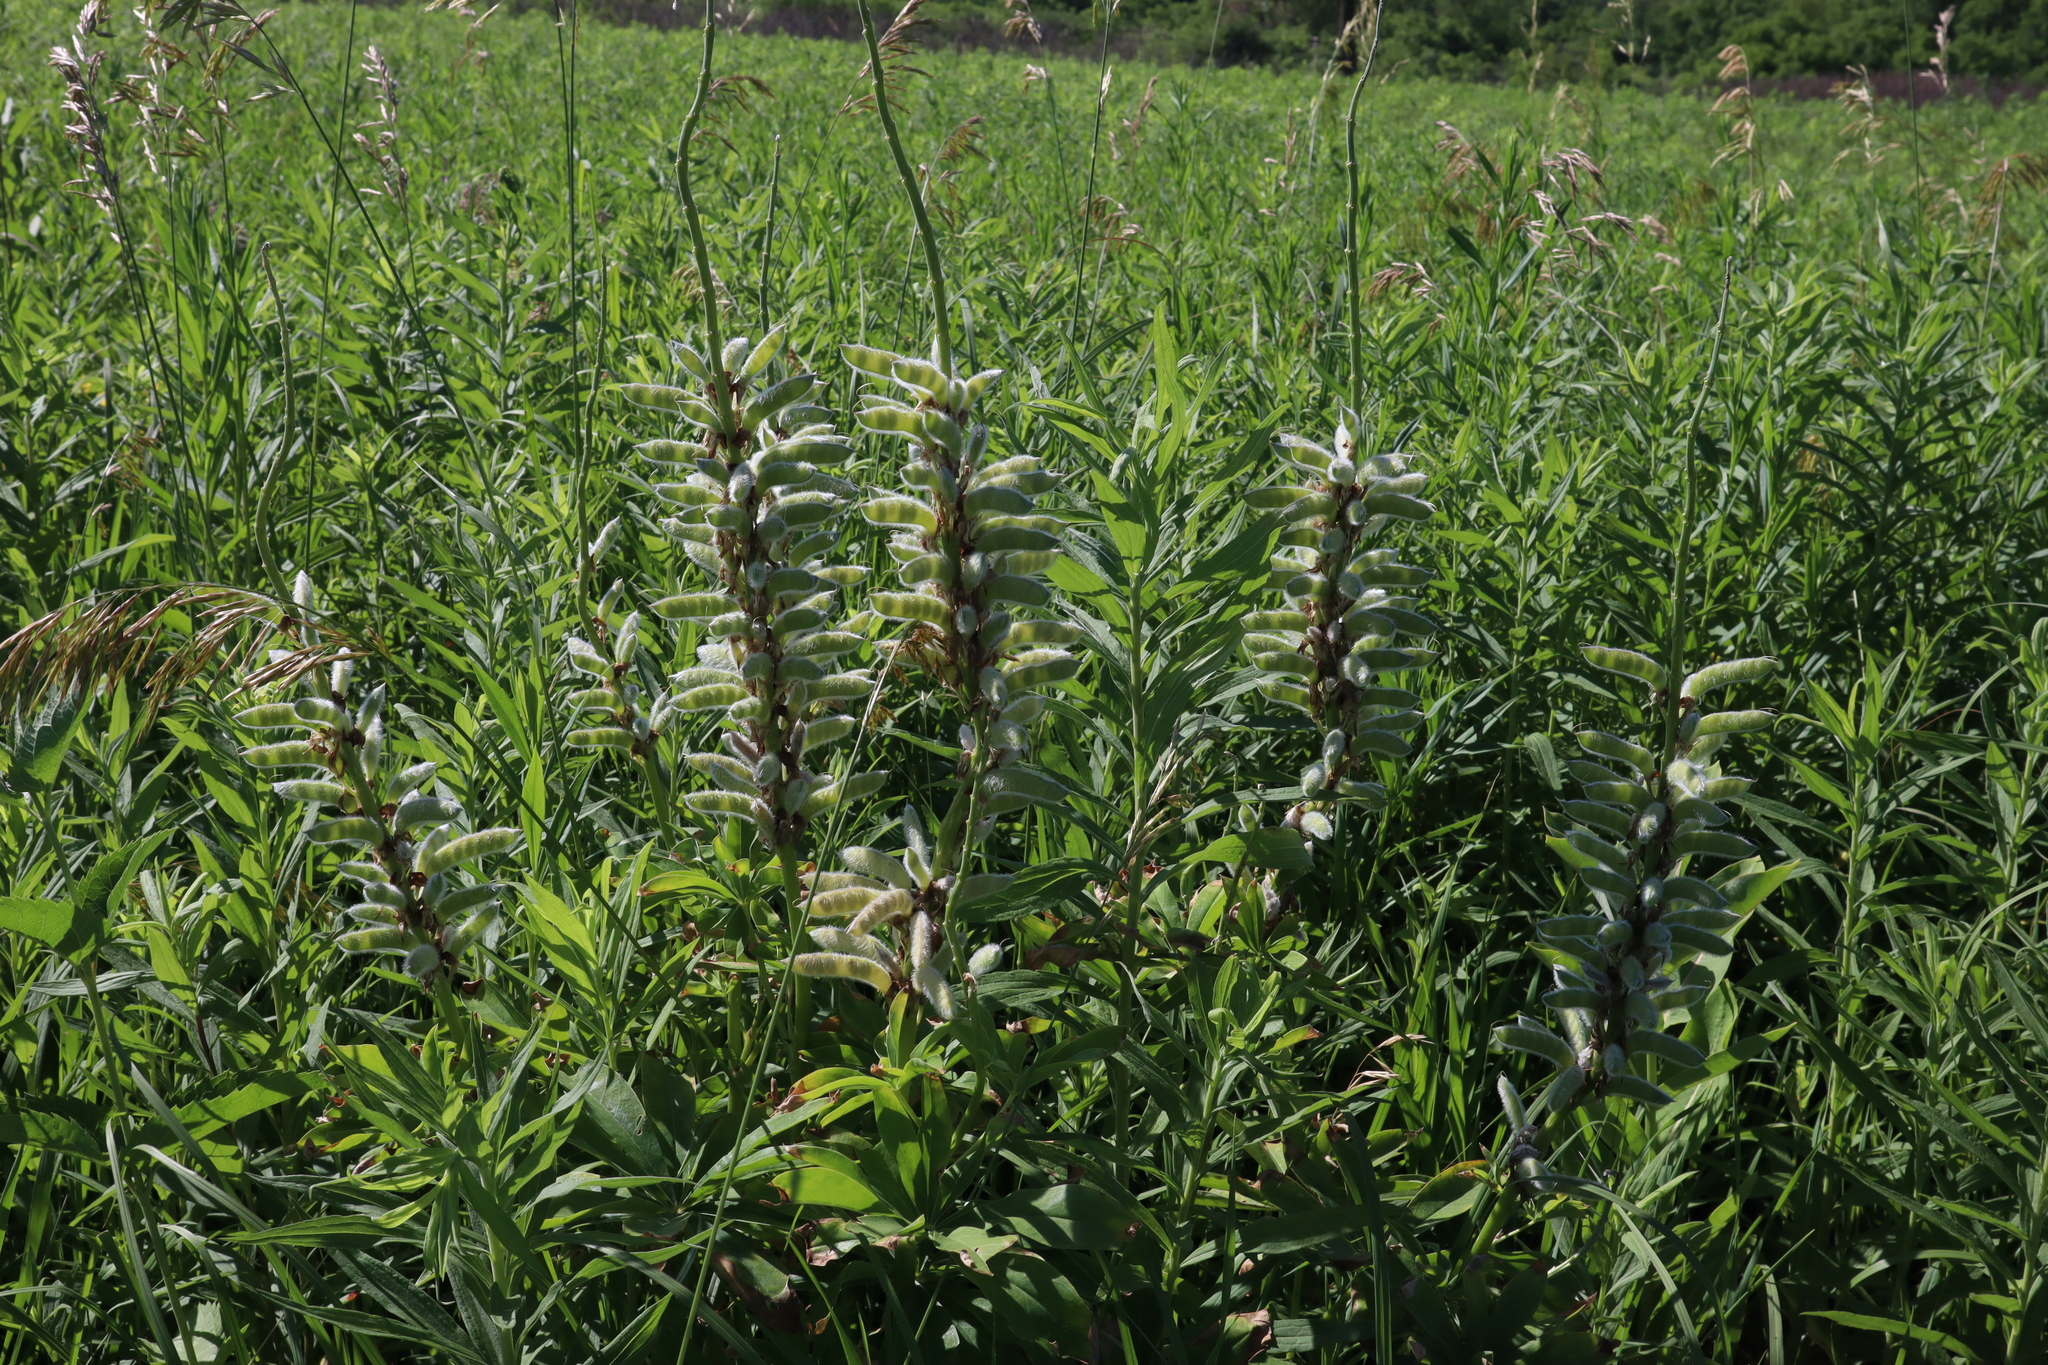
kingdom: Plantae
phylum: Tracheophyta
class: Magnoliopsida
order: Fabales
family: Fabaceae
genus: Lupinus
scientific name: Lupinus perennis
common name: Sundial lupine
